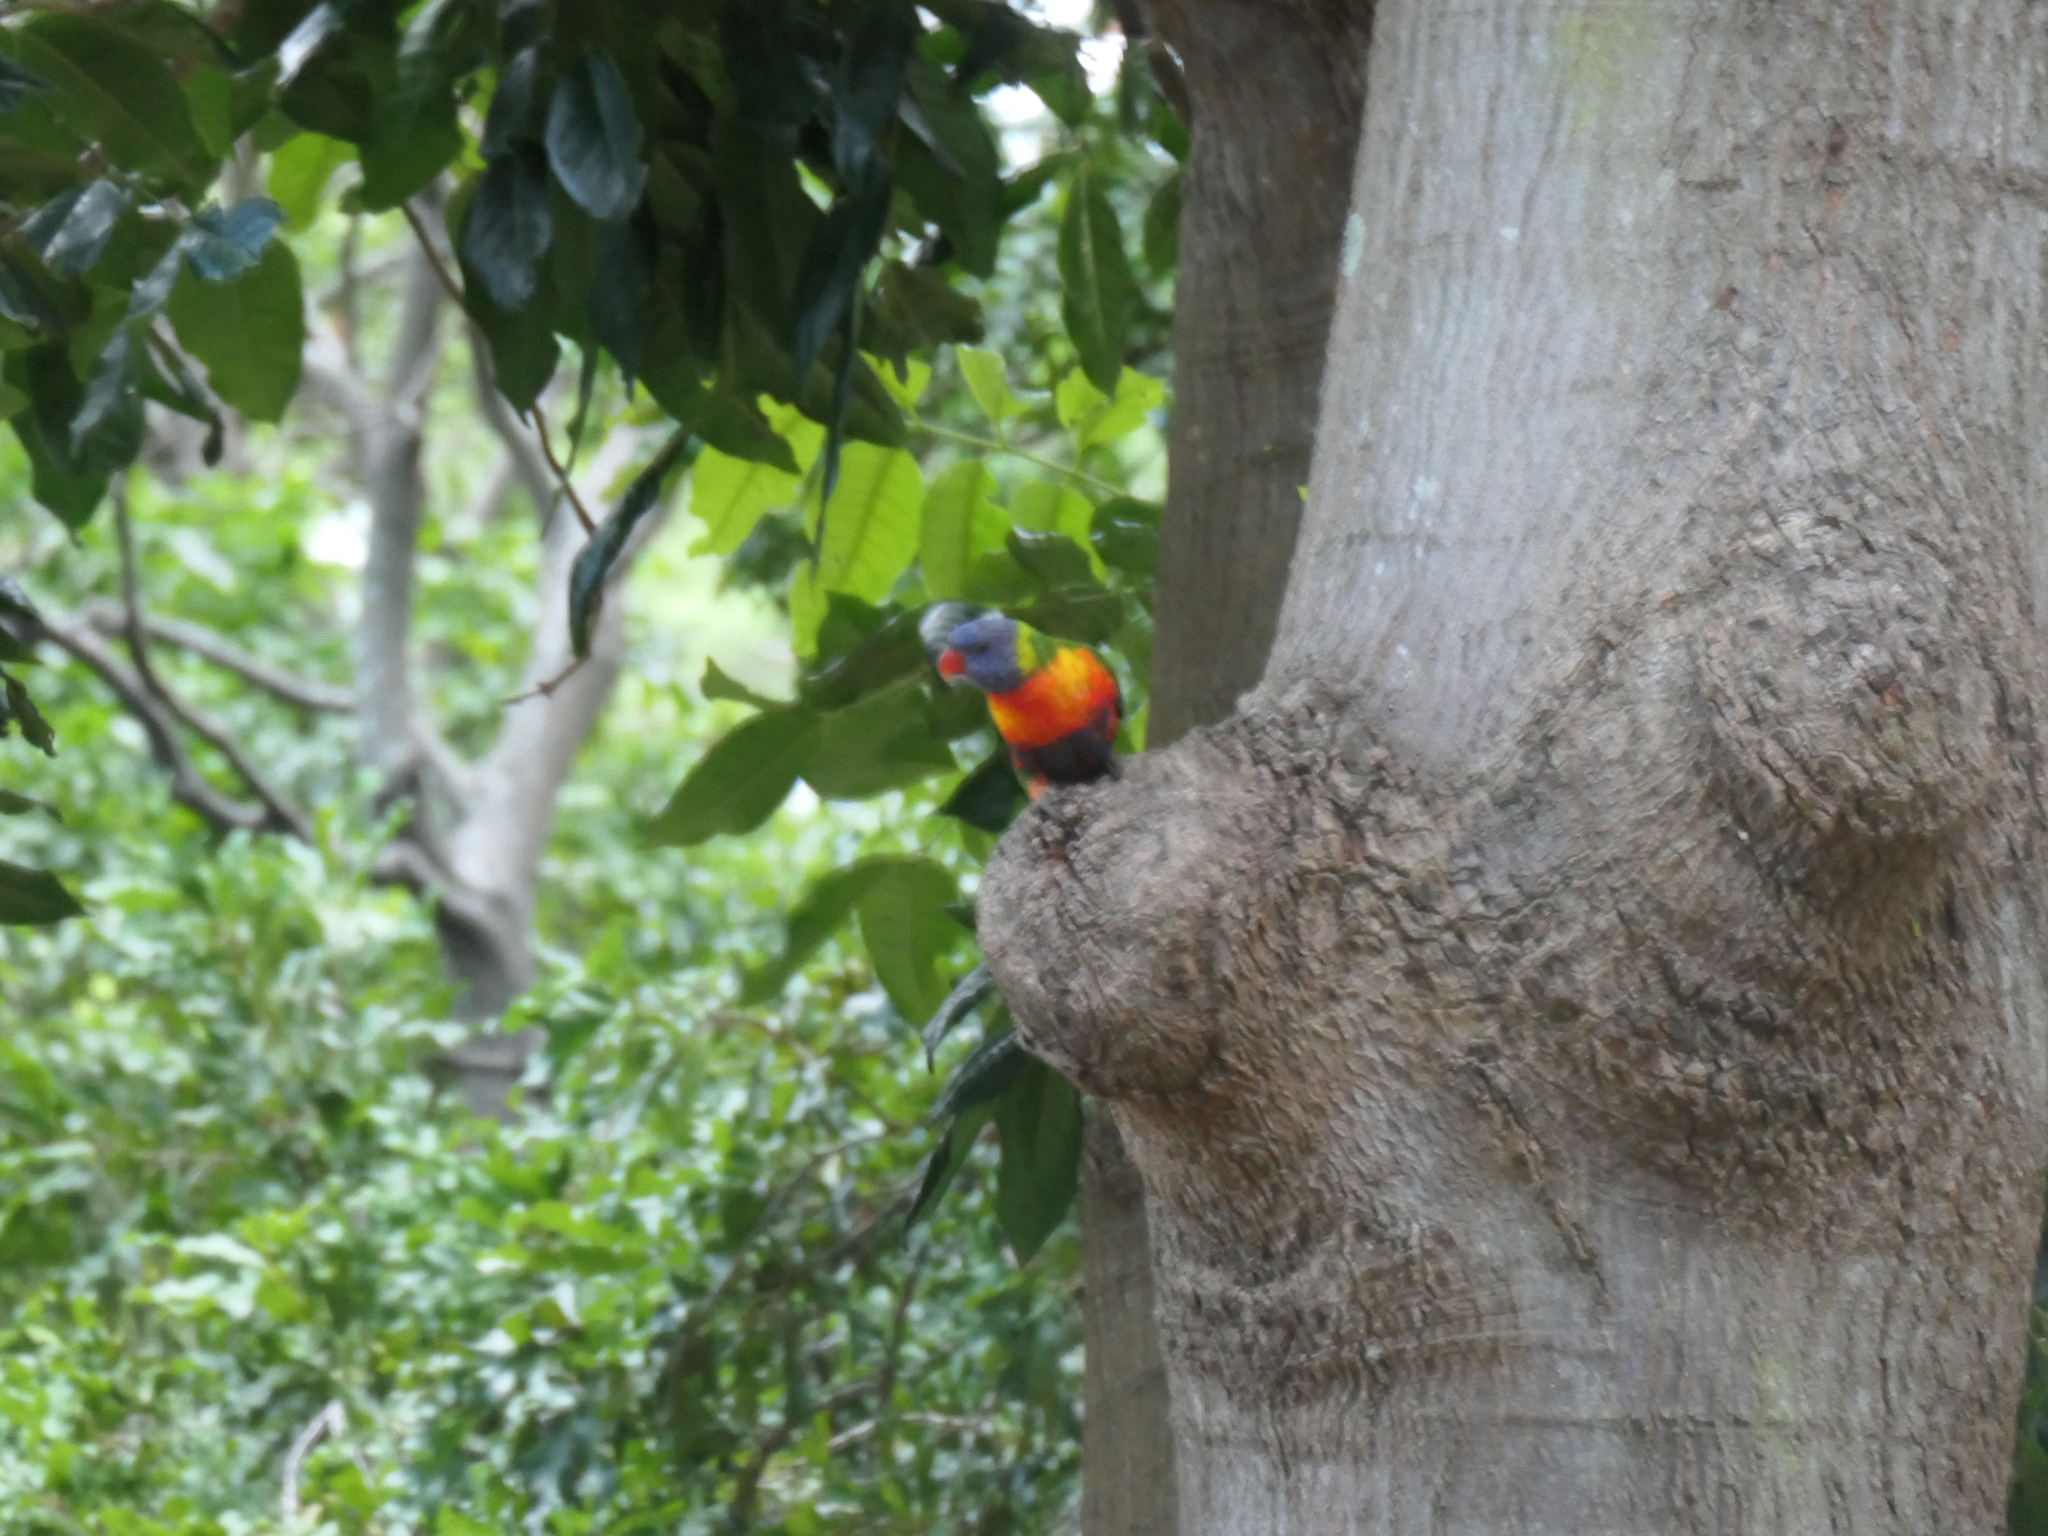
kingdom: Animalia
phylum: Chordata
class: Aves
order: Psittaciformes
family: Psittacidae
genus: Trichoglossus
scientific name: Trichoglossus haematodus
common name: Coconut lorikeet
